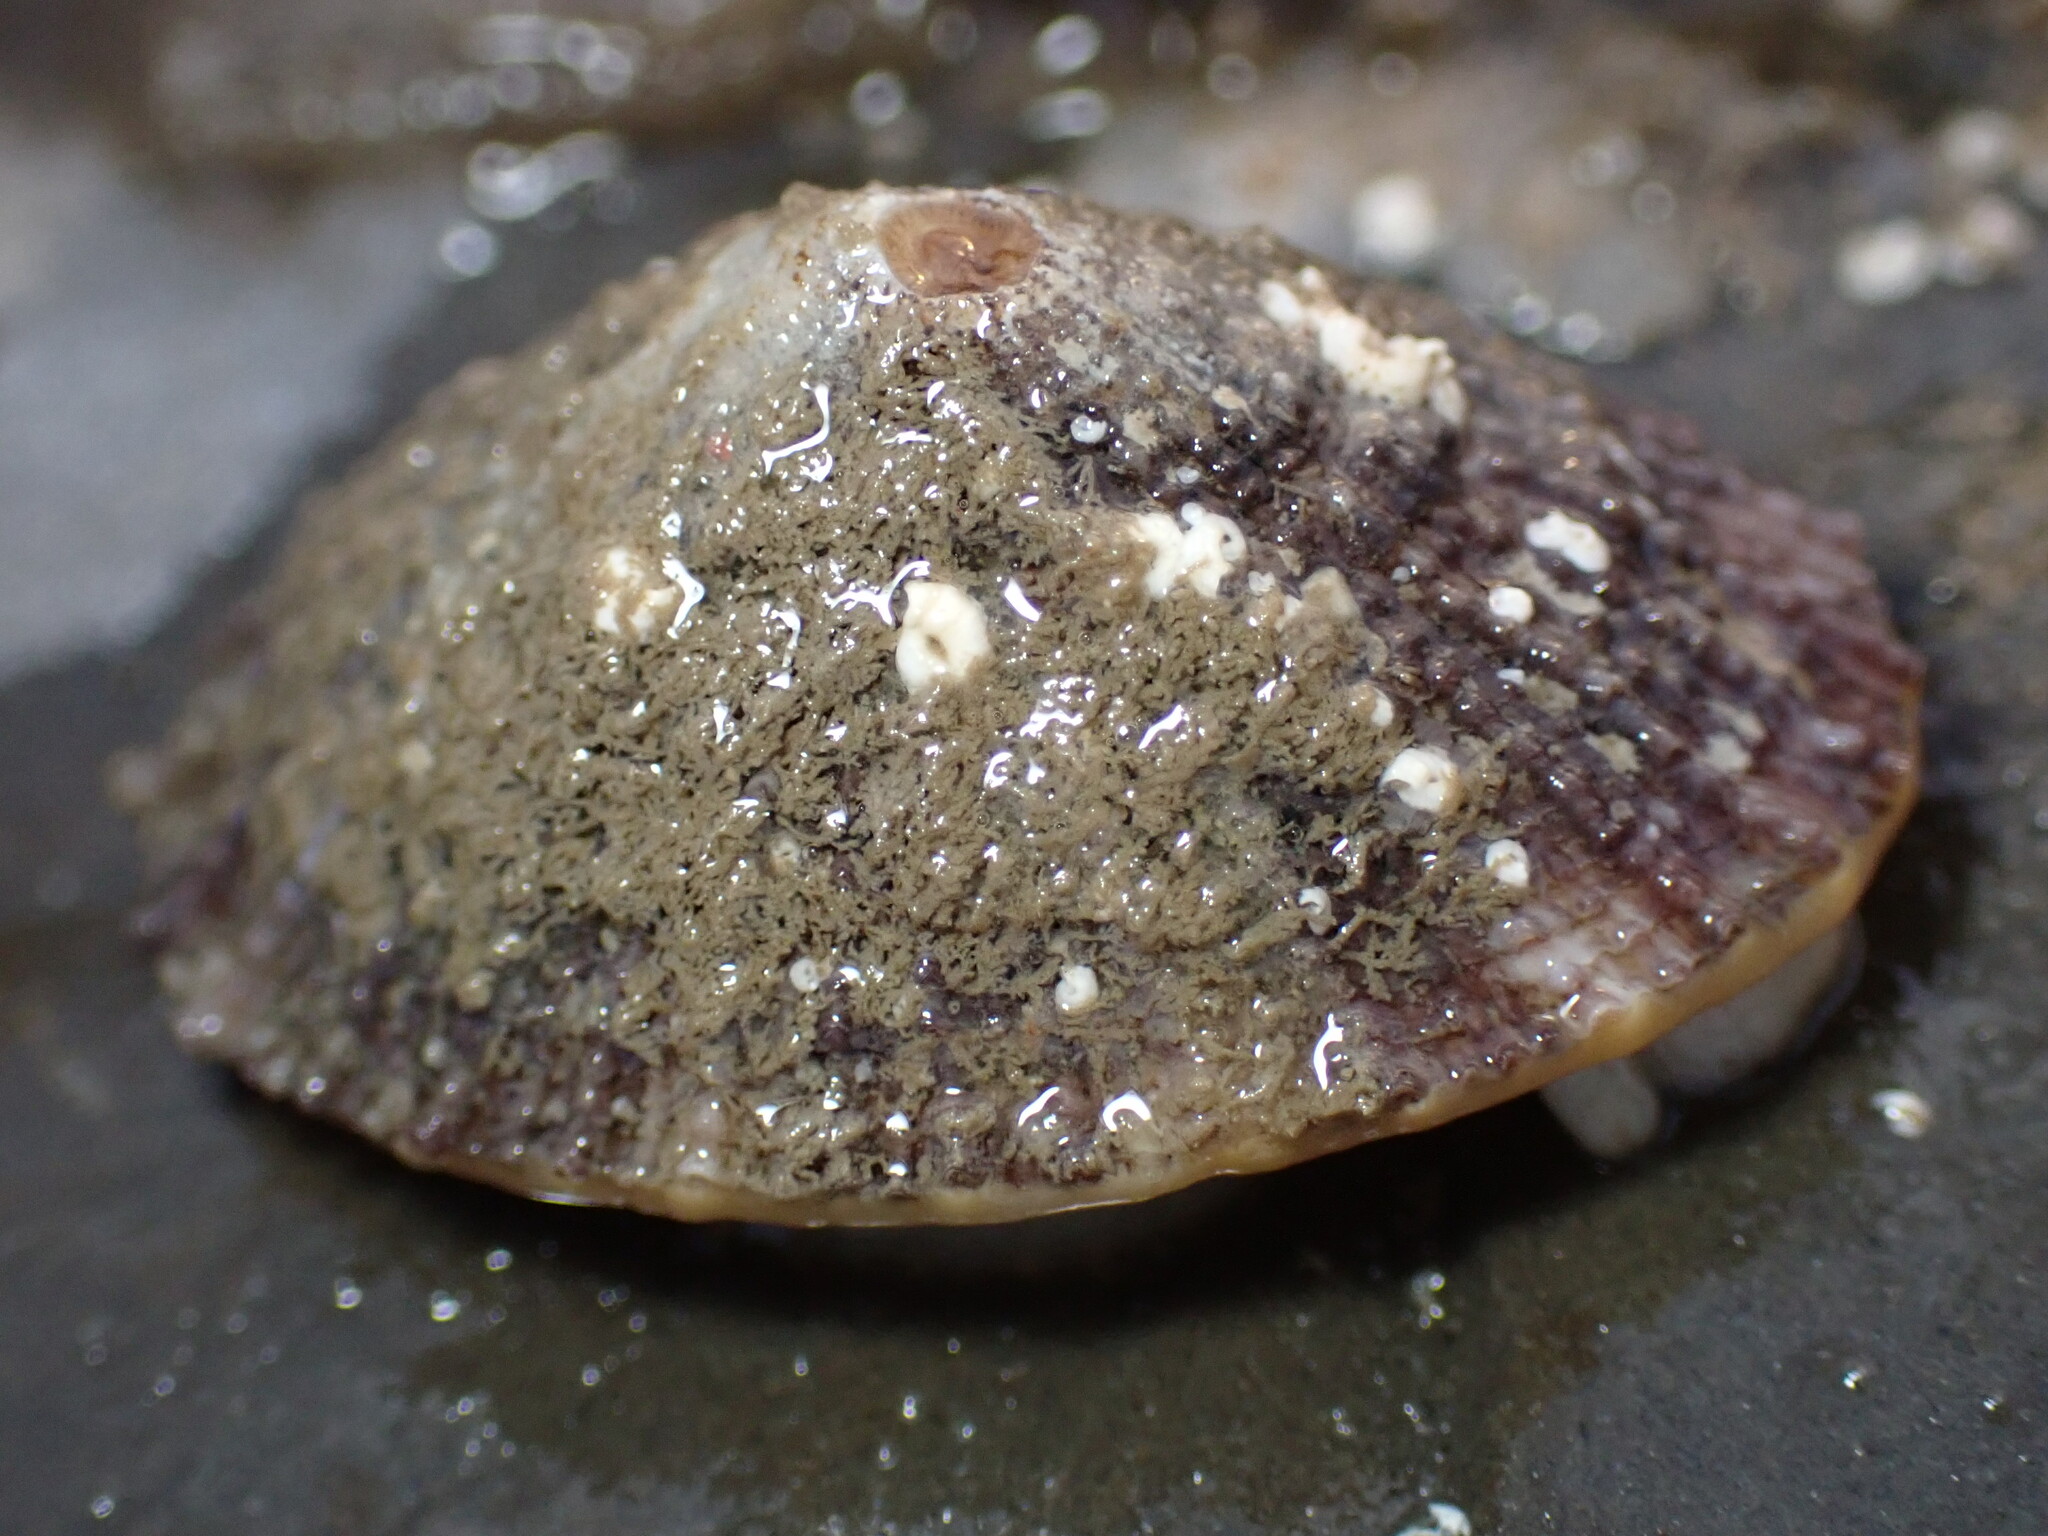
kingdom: Animalia
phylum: Mollusca
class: Gastropoda
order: Lepetellida
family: Fissurellidae
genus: Diodora
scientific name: Diodora aspera
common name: Rough keyhole limpet
